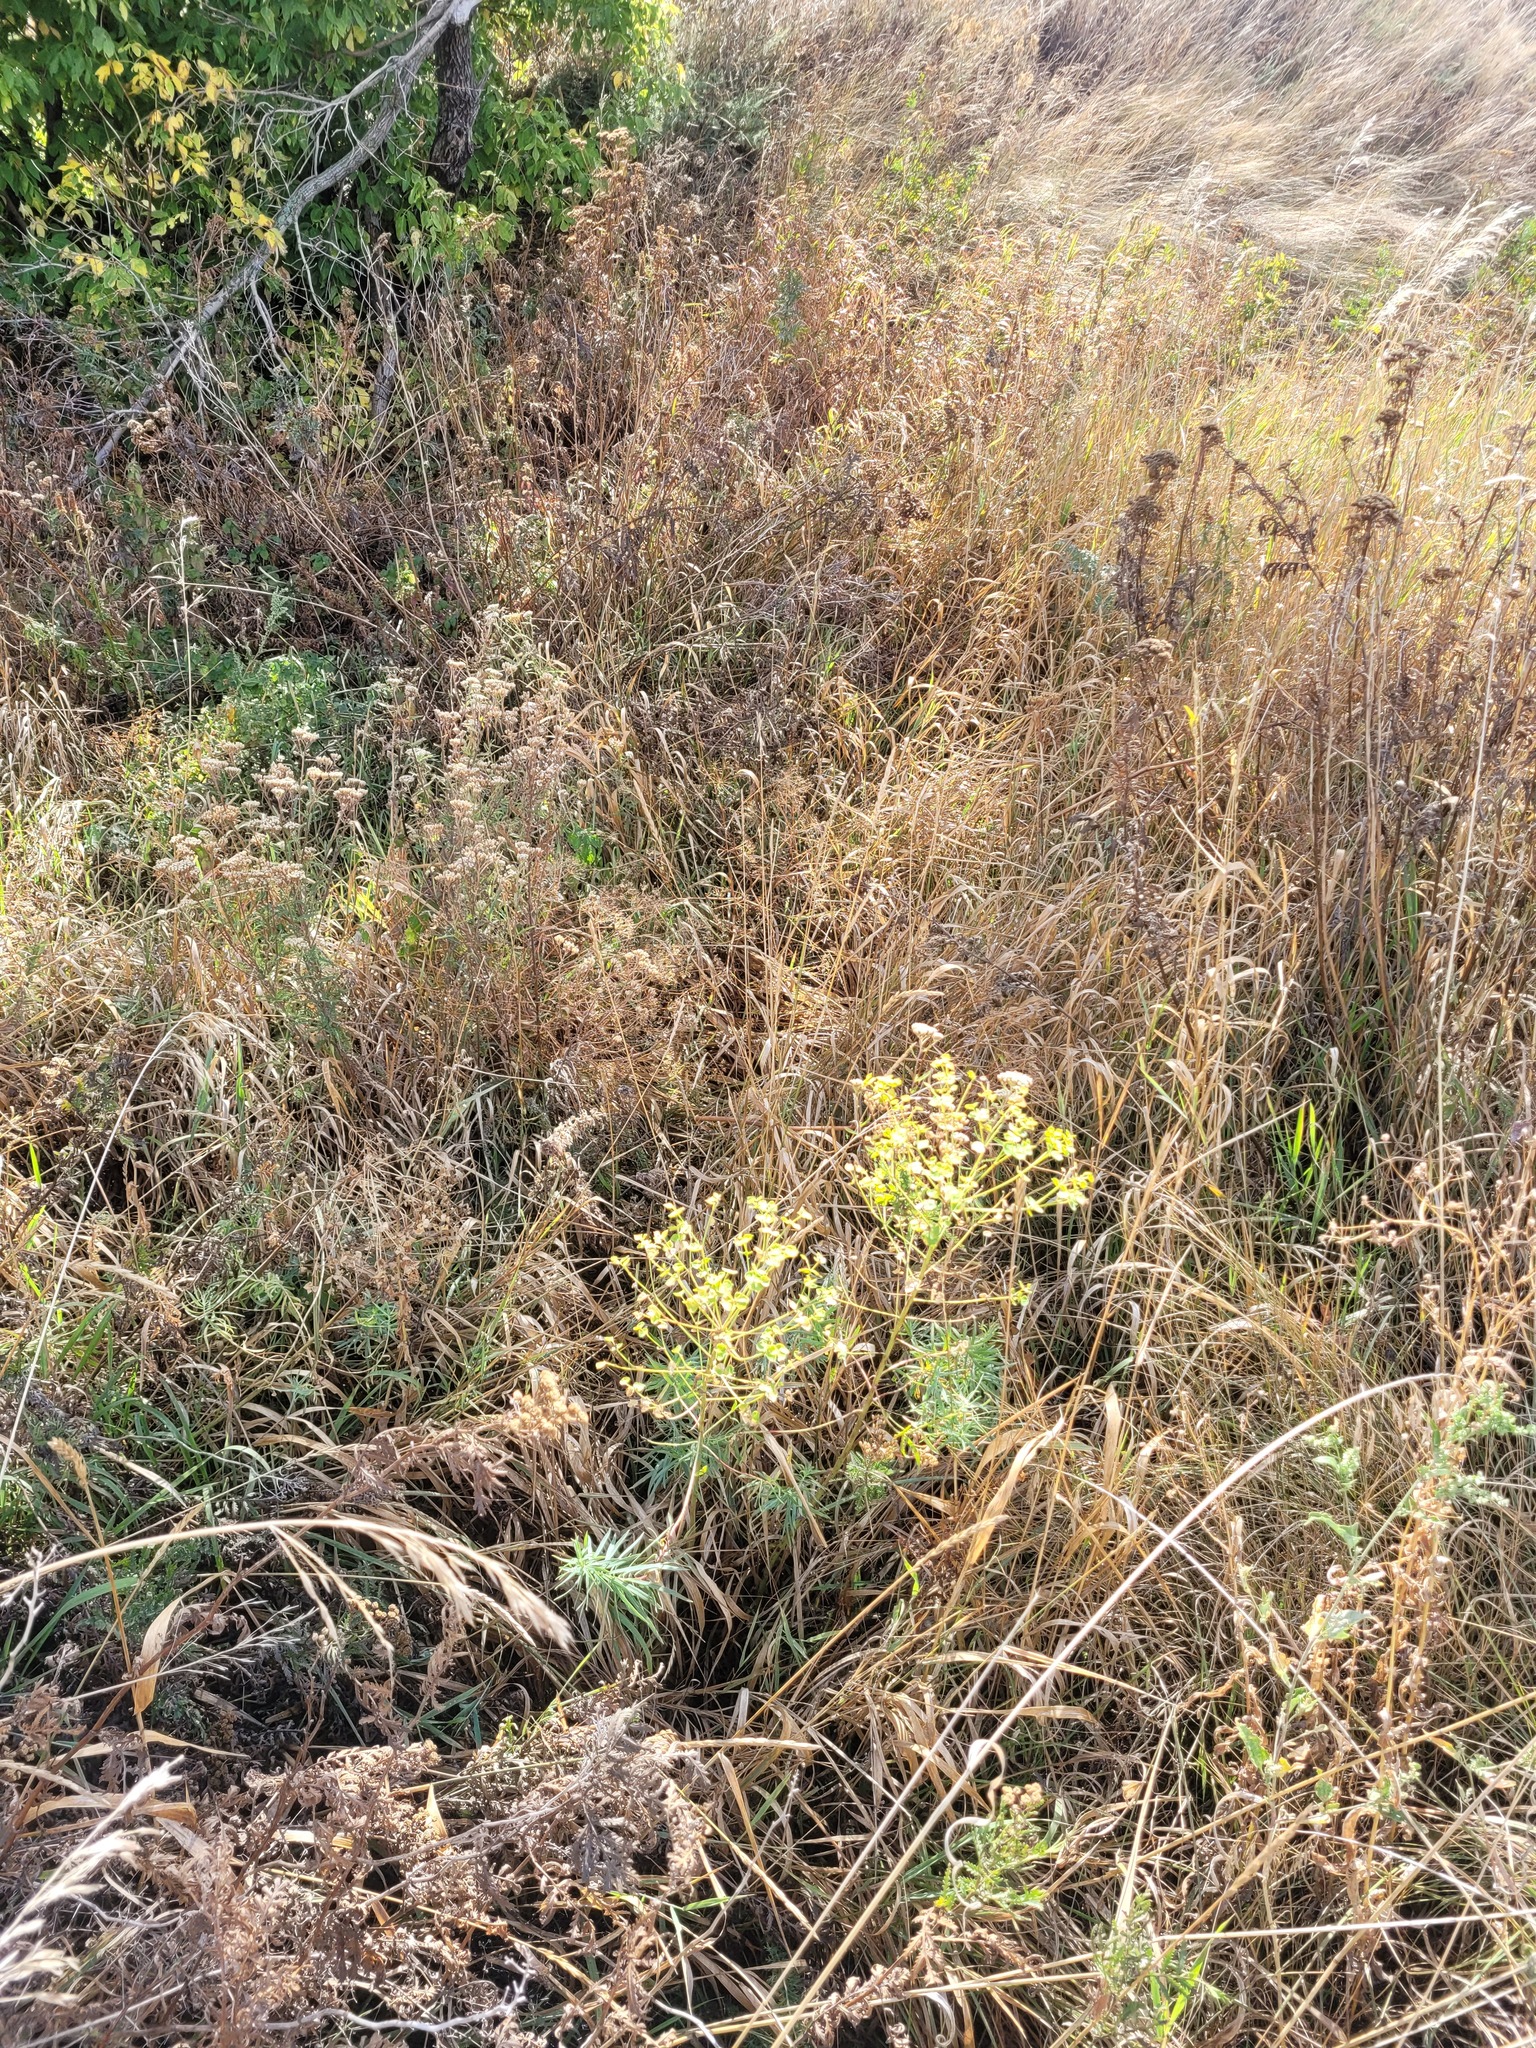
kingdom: Plantae
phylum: Tracheophyta
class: Magnoliopsida
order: Malpighiales
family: Euphorbiaceae
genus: Euphorbia
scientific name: Euphorbia virgata
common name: Leafy spurge
